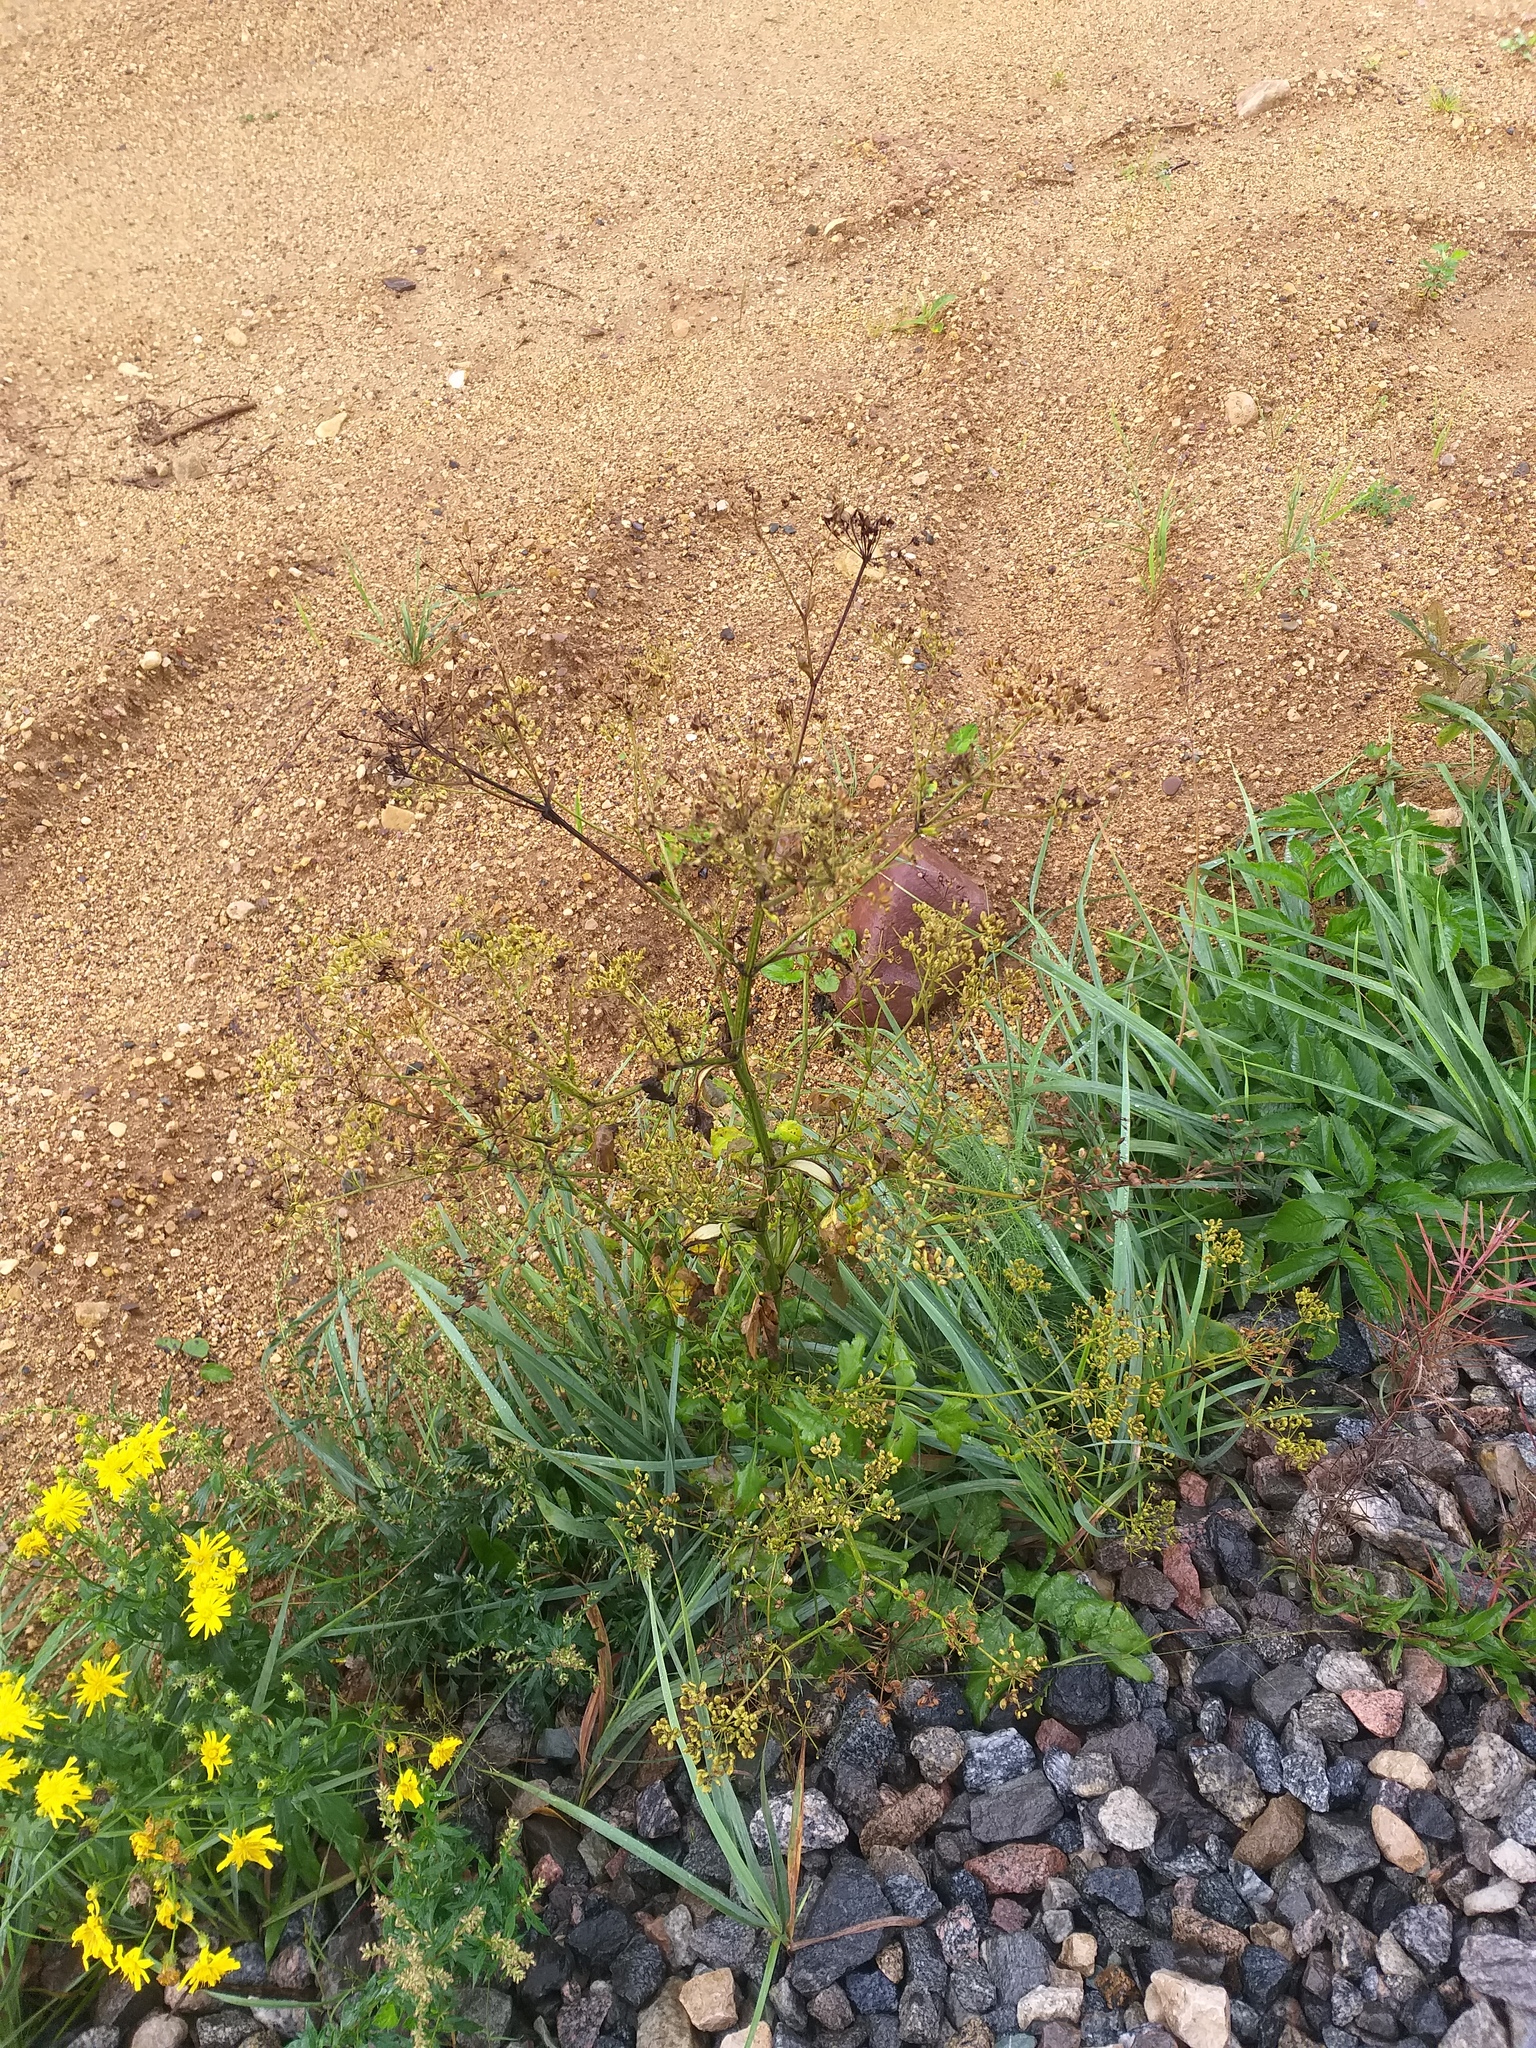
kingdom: Plantae
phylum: Tracheophyta
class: Magnoliopsida
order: Apiales
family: Apiaceae
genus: Pastinaca
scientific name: Pastinaca sativa
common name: Wild parsnip
